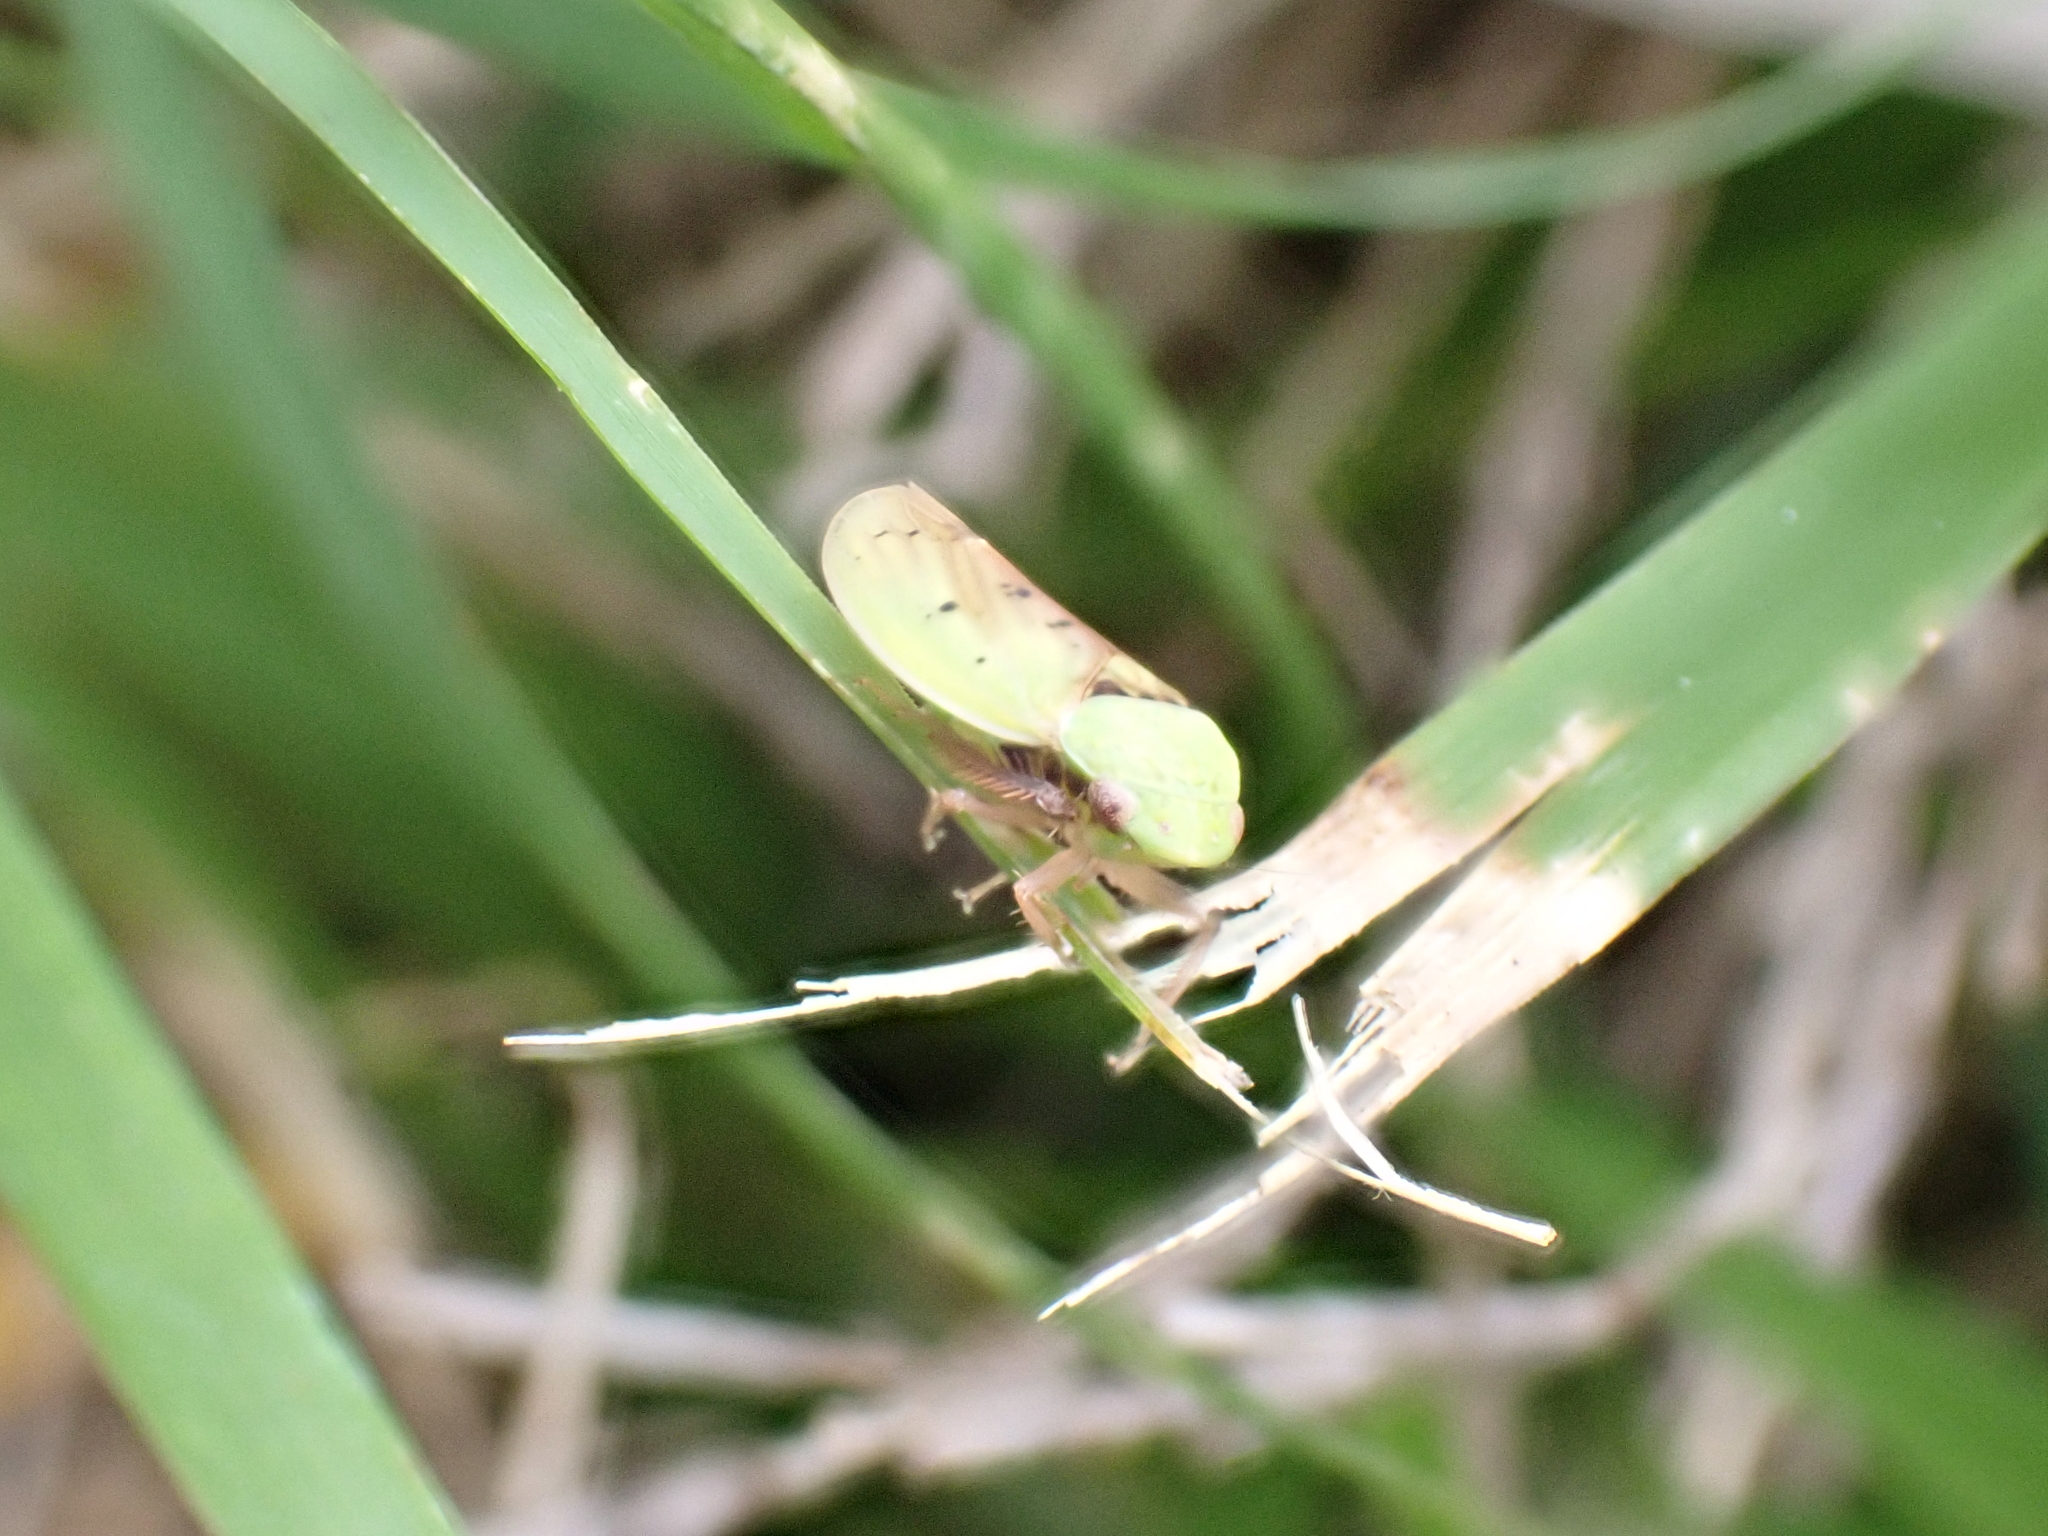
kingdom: Animalia
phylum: Arthropoda
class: Insecta
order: Hemiptera
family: Cicadellidae
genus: Ponana
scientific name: Ponana pectoralis
